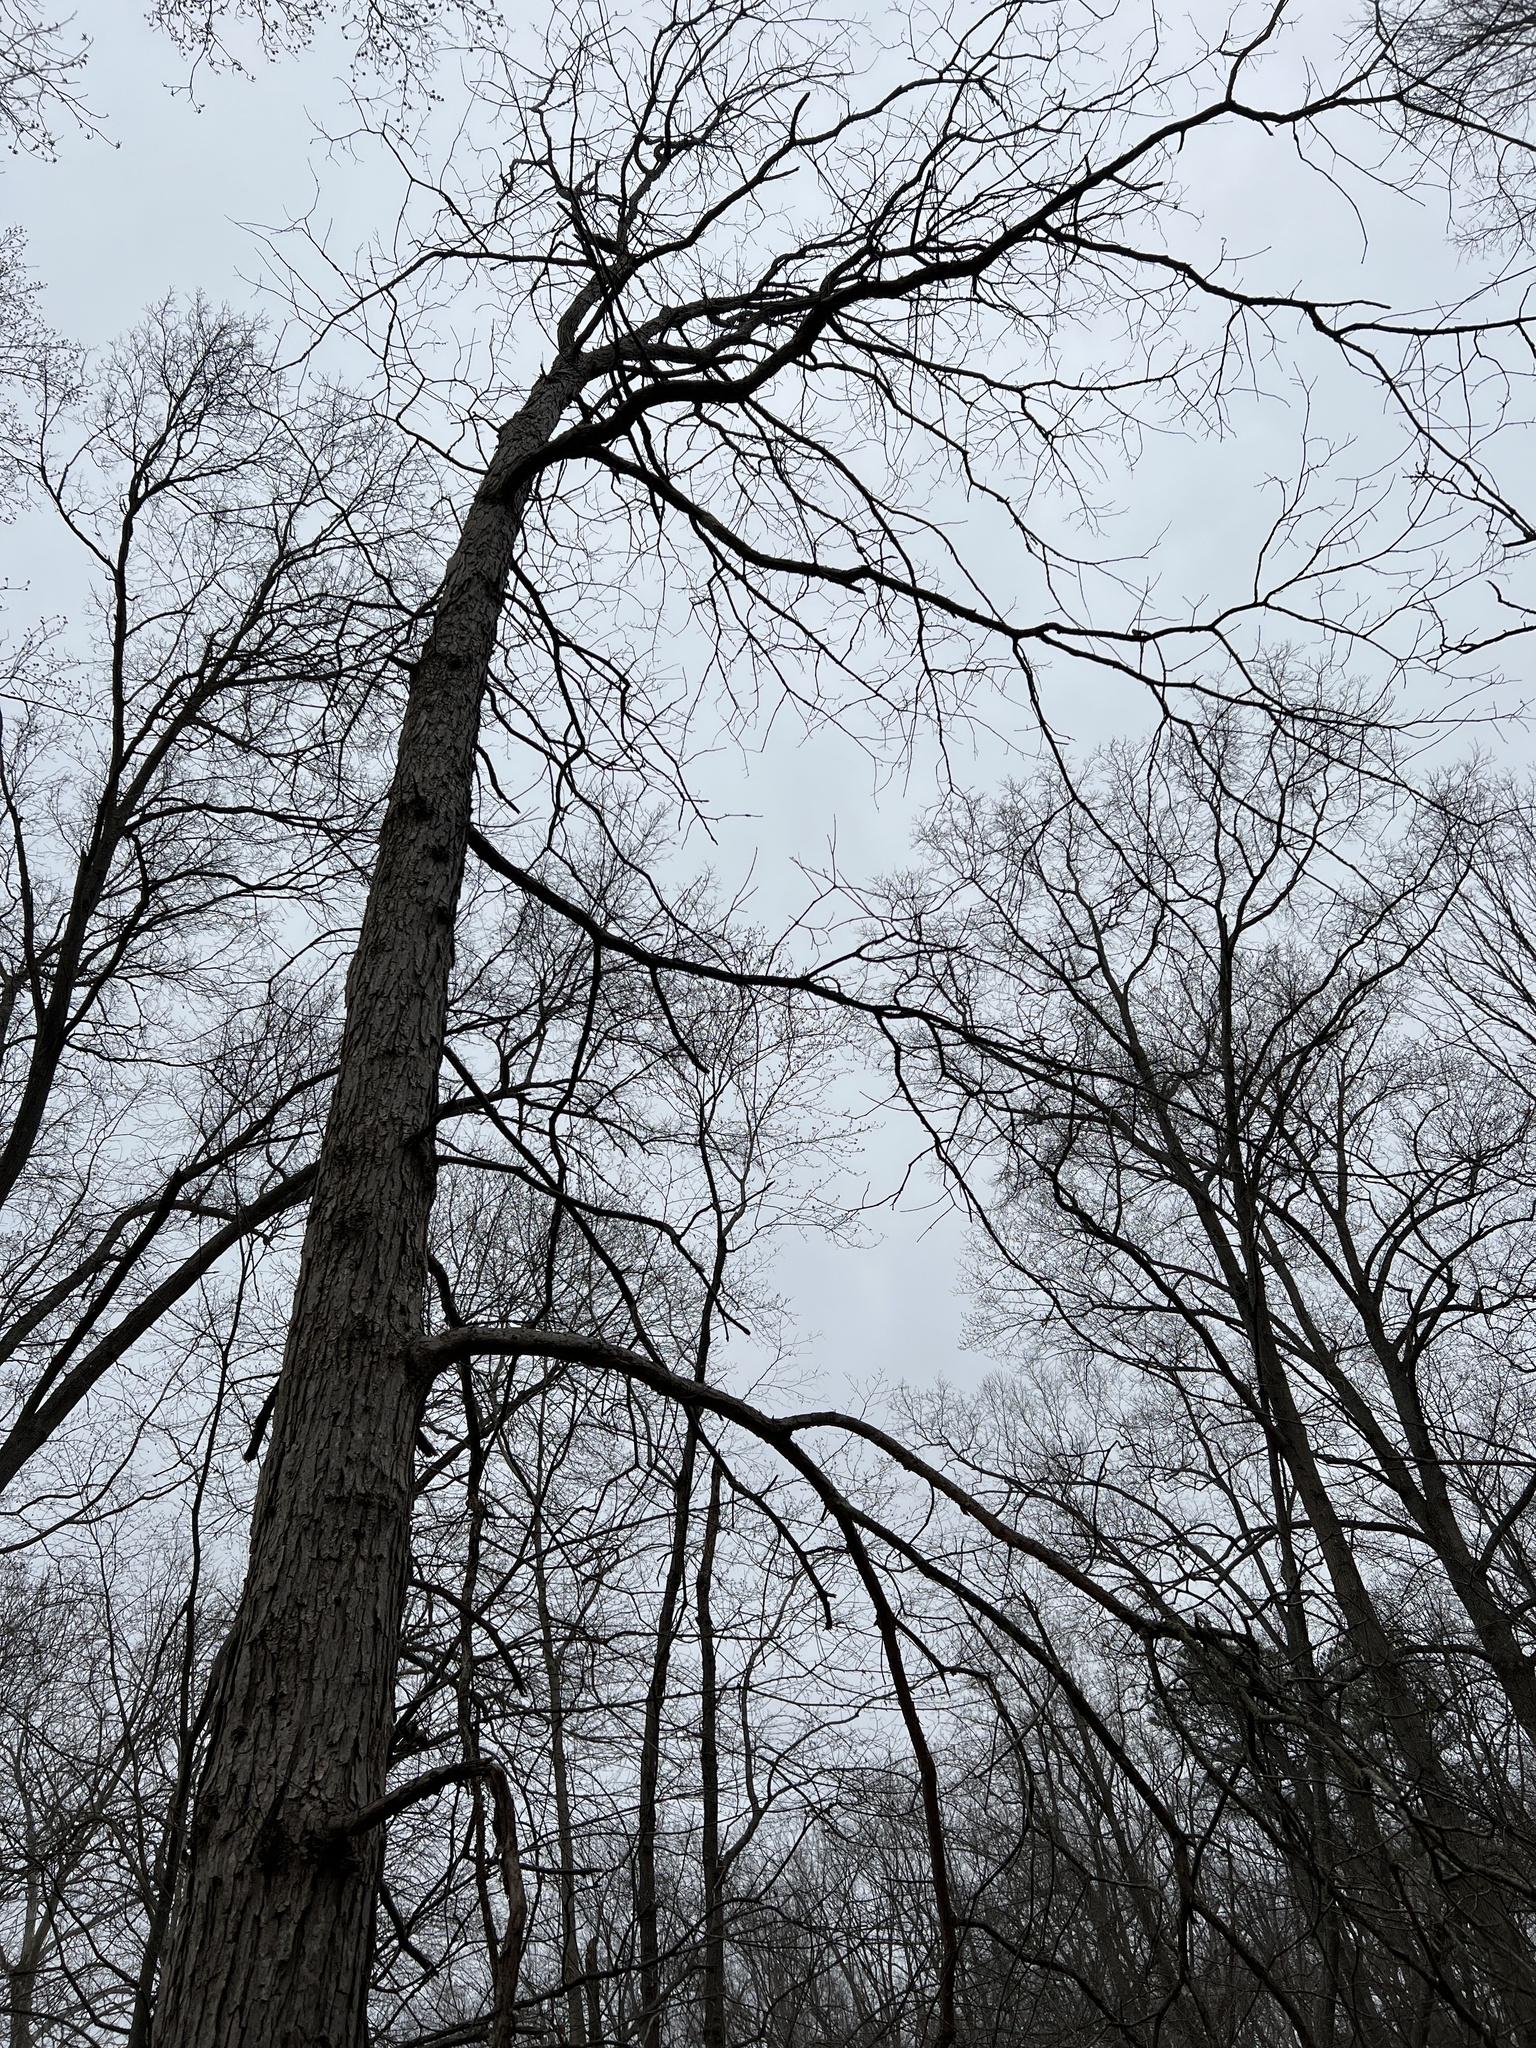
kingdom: Plantae
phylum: Tracheophyta
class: Magnoliopsida
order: Fagales
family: Fagaceae
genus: Quercus
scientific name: Quercus bicolor
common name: Swamp white oak
